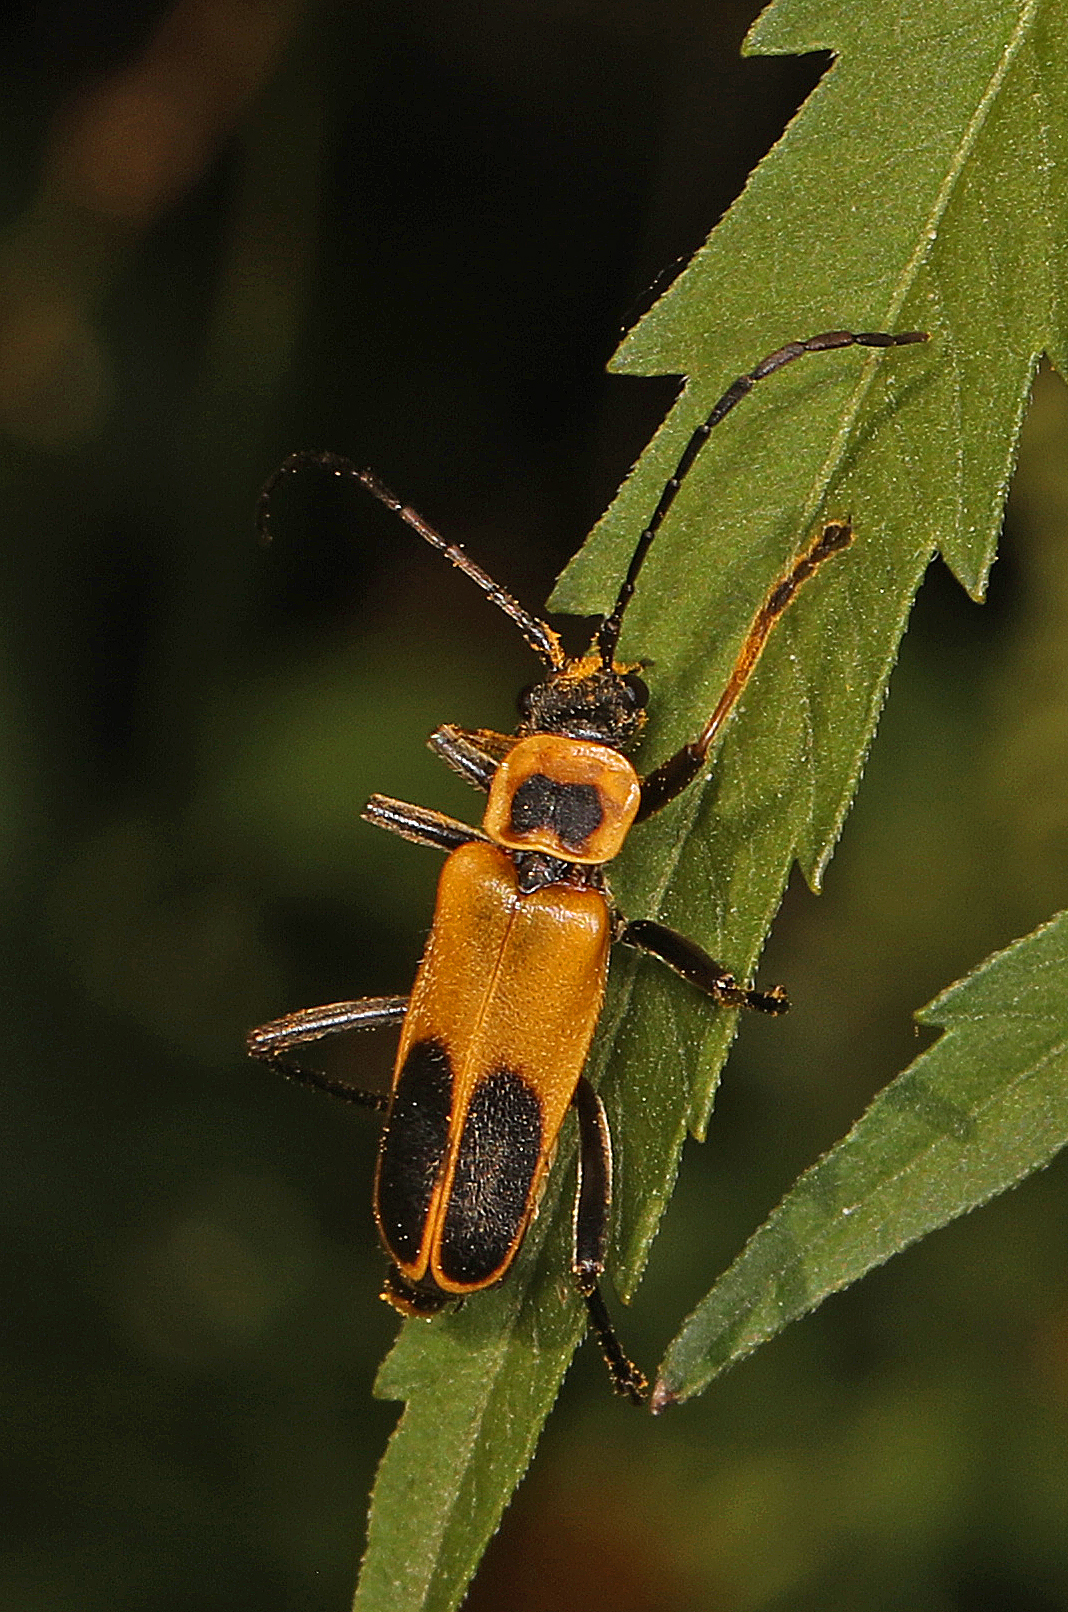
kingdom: Animalia
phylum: Arthropoda
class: Insecta
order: Coleoptera
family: Cantharidae
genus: Chauliognathus
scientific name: Chauliognathus pensylvanicus
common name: Goldenrod soldier beetle
